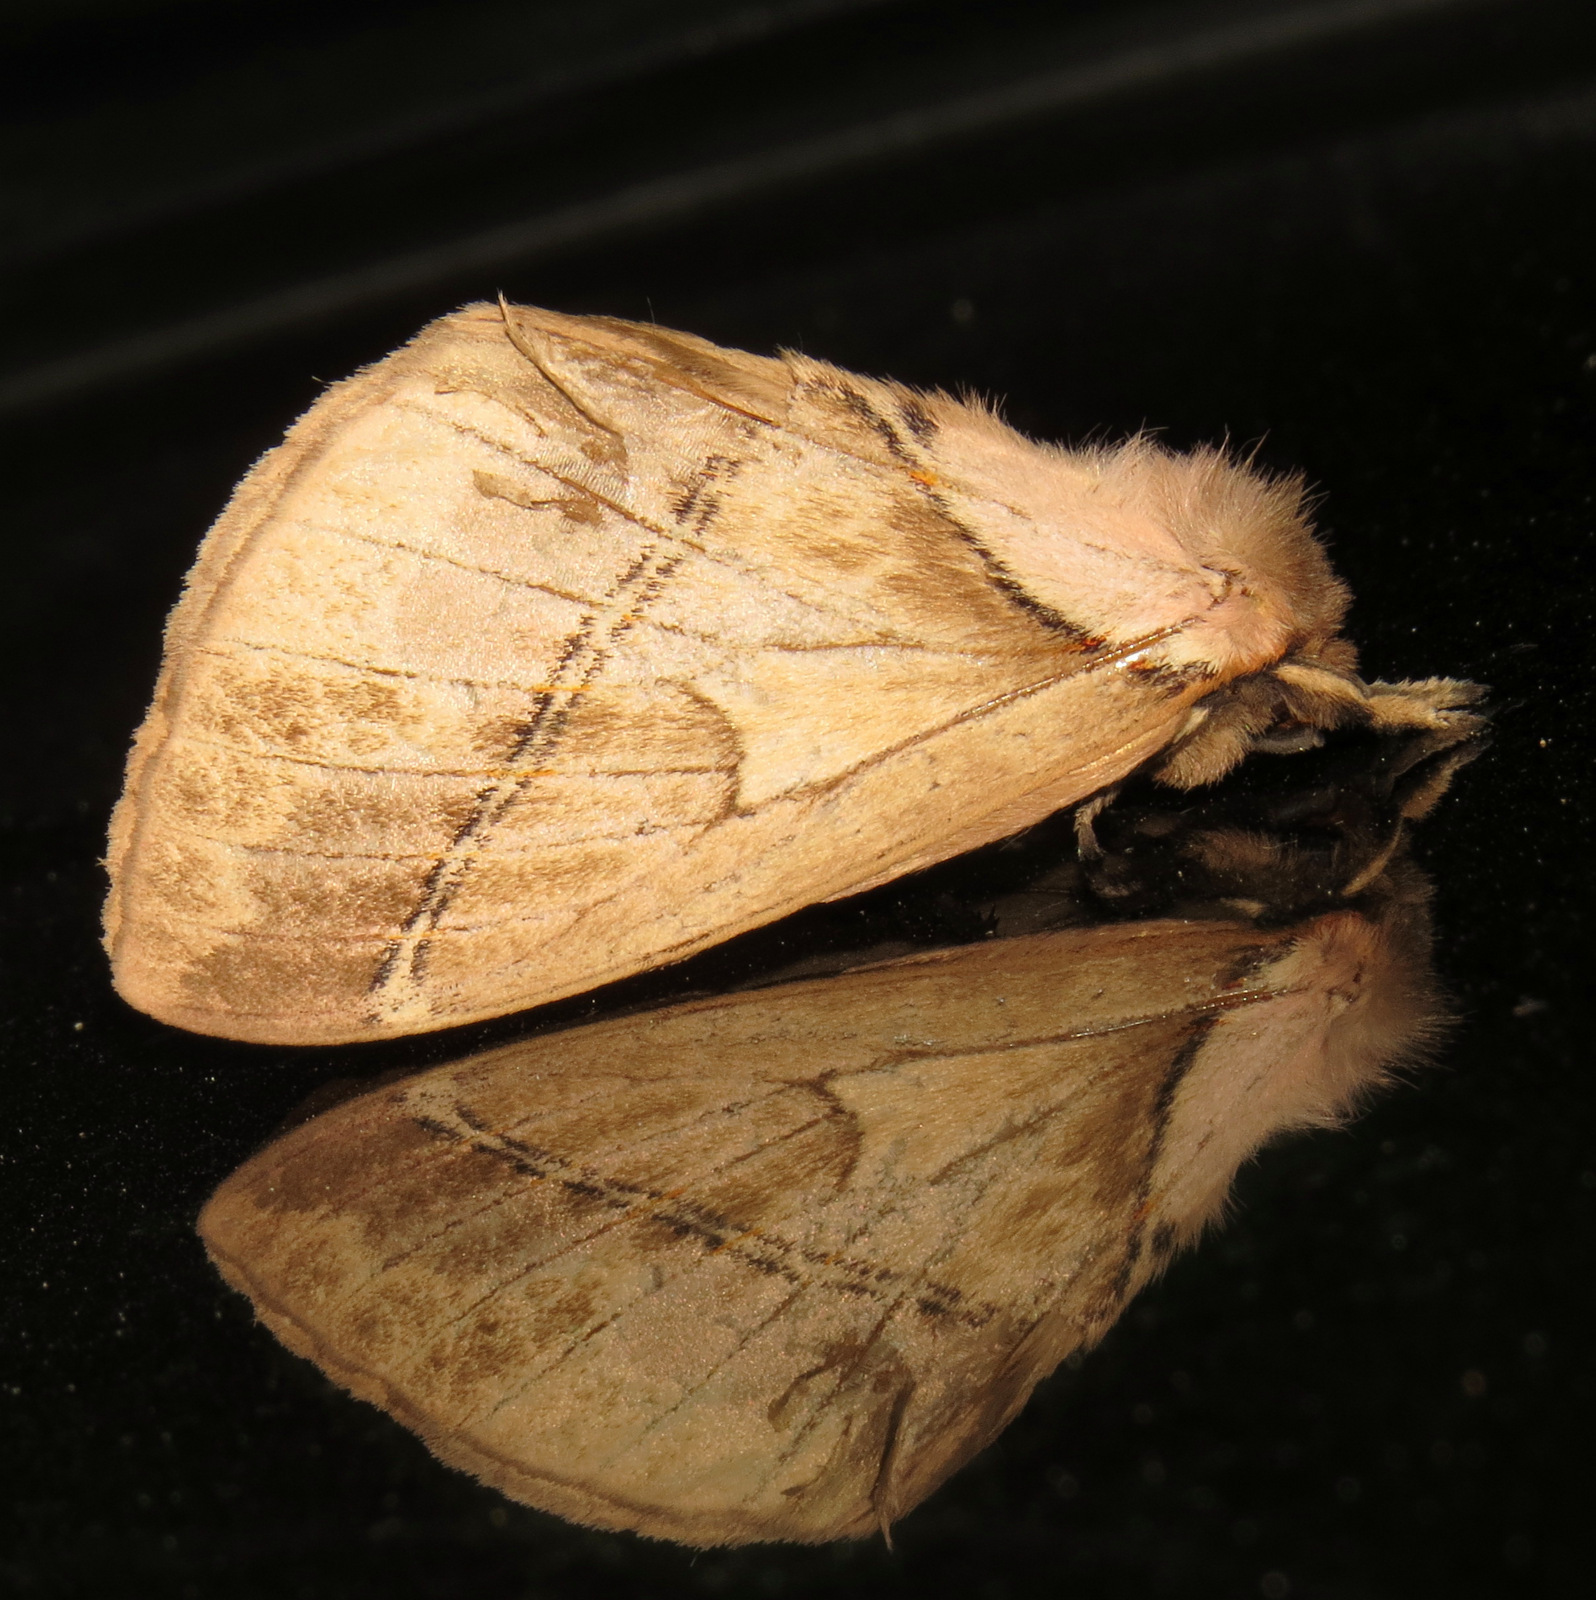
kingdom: Animalia
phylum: Arthropoda
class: Insecta
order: Lepidoptera
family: Saturniidae
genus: Pseudodirphia
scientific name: Pseudodirphia eumedide
